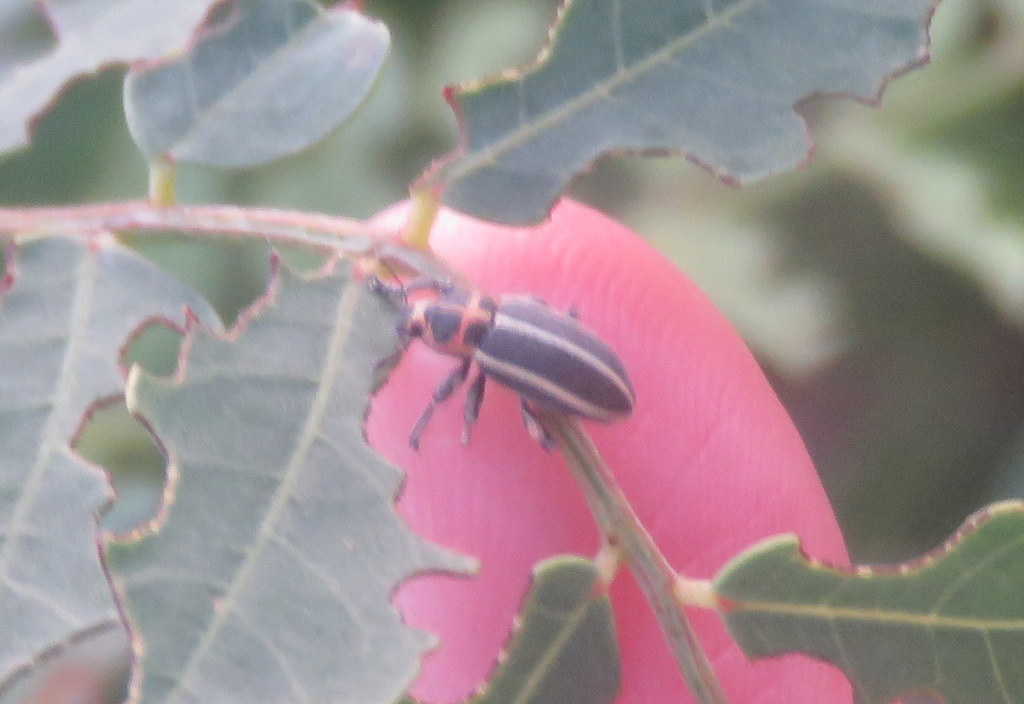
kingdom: Animalia
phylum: Arthropoda
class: Insecta
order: Coleoptera
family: Curculionidae
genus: Eudiagogus
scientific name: Eudiagogus episcopalis
